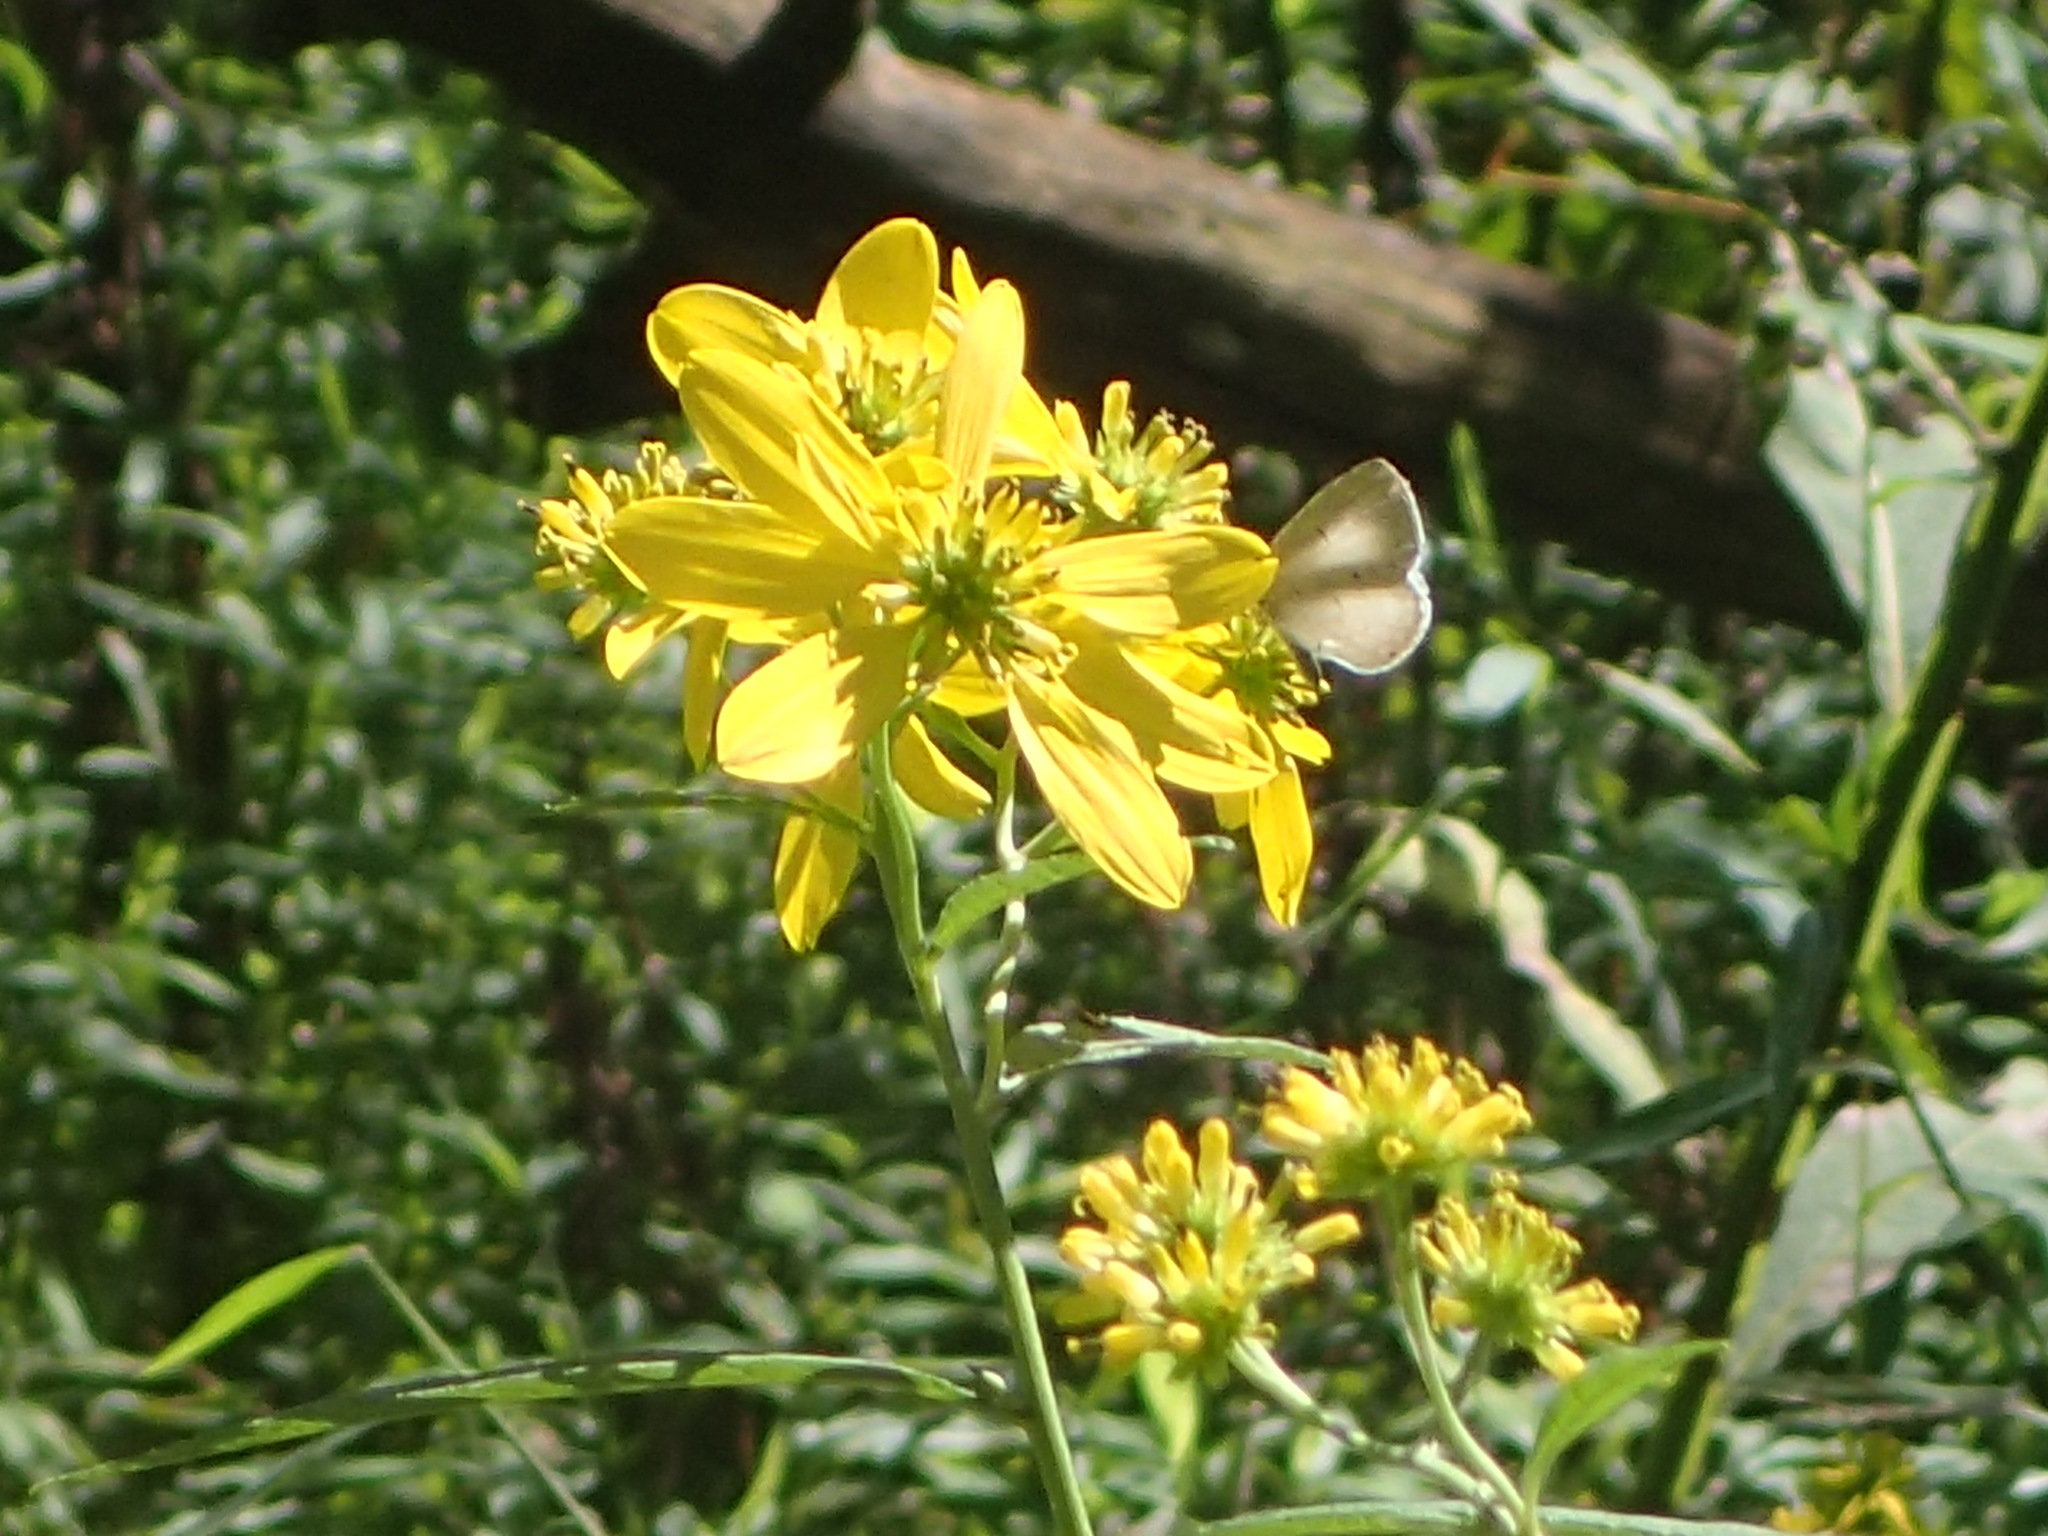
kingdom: Animalia
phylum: Arthropoda
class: Insecta
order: Lepidoptera
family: Lycaenidae
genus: Cyaniris
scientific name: Cyaniris neglecta
